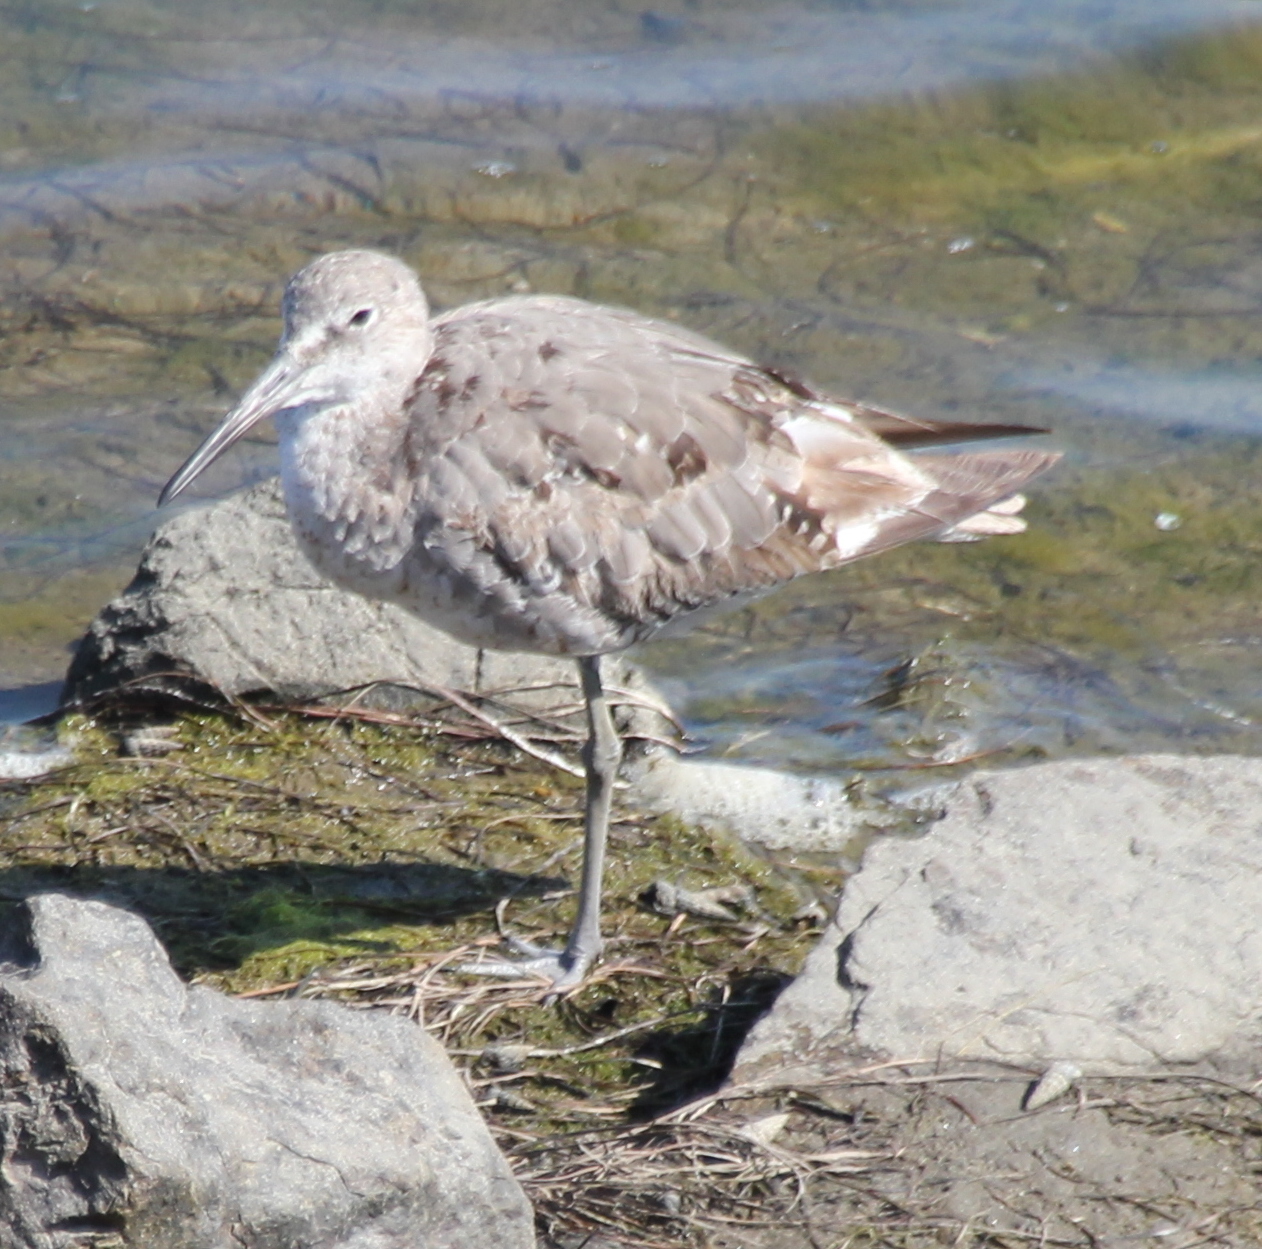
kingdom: Animalia
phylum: Chordata
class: Aves
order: Charadriiformes
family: Scolopacidae
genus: Tringa
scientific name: Tringa semipalmata
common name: Willet
